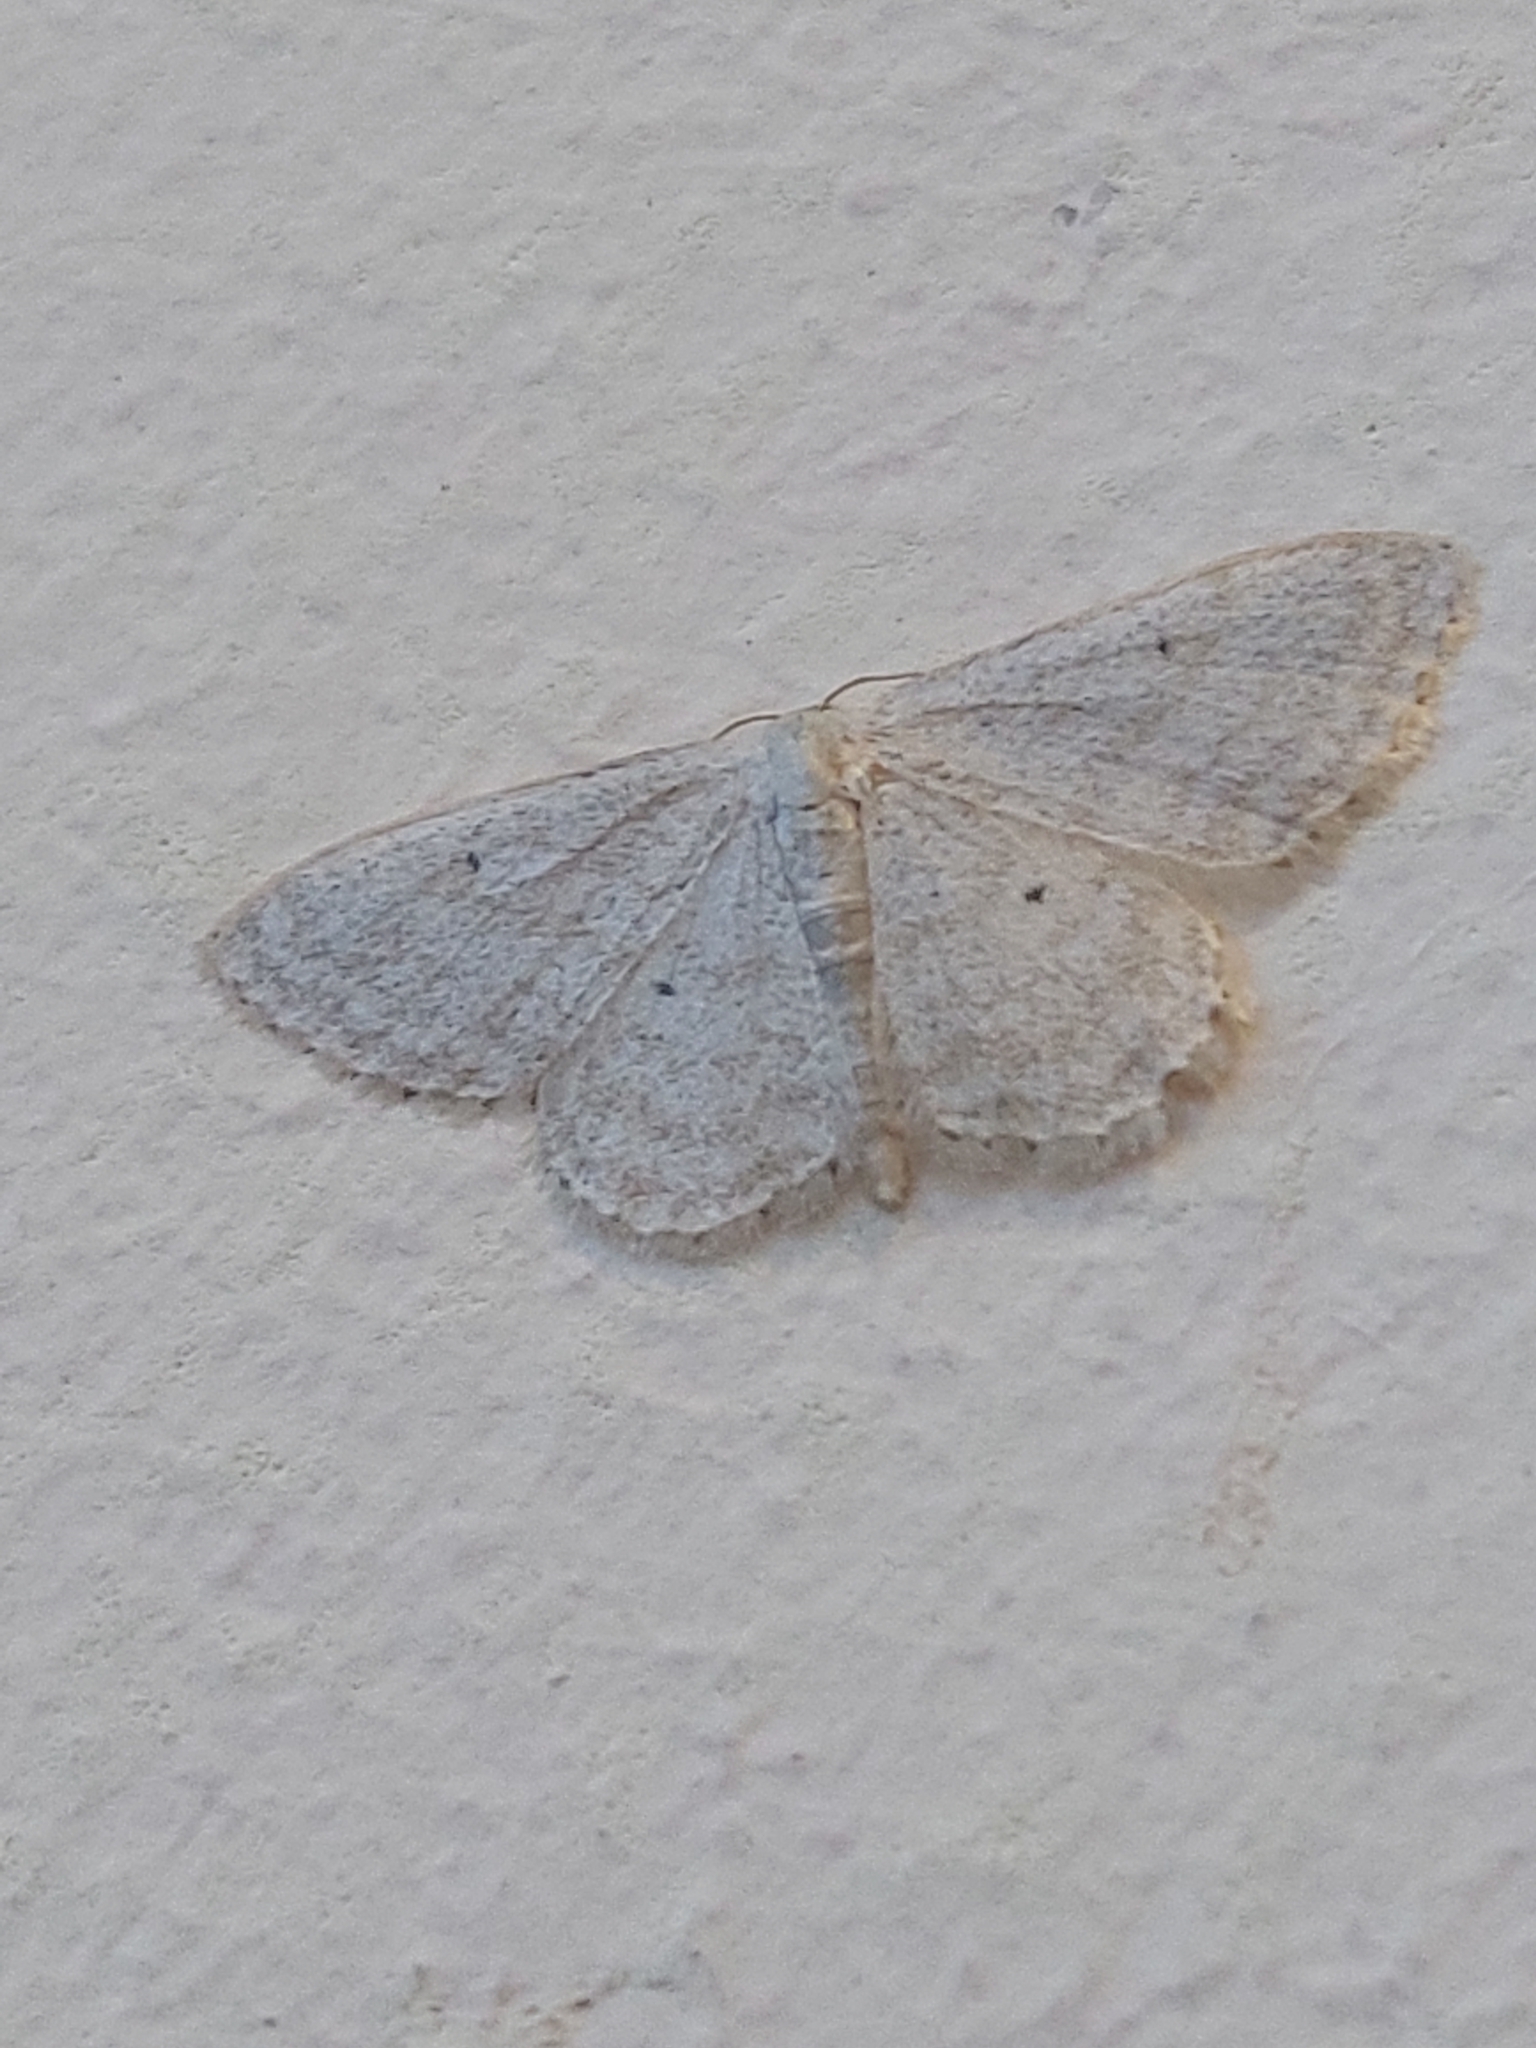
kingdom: Animalia
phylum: Arthropoda
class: Insecta
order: Lepidoptera
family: Geometridae
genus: Idaea
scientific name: Idaea subsericeata
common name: Satin wave
